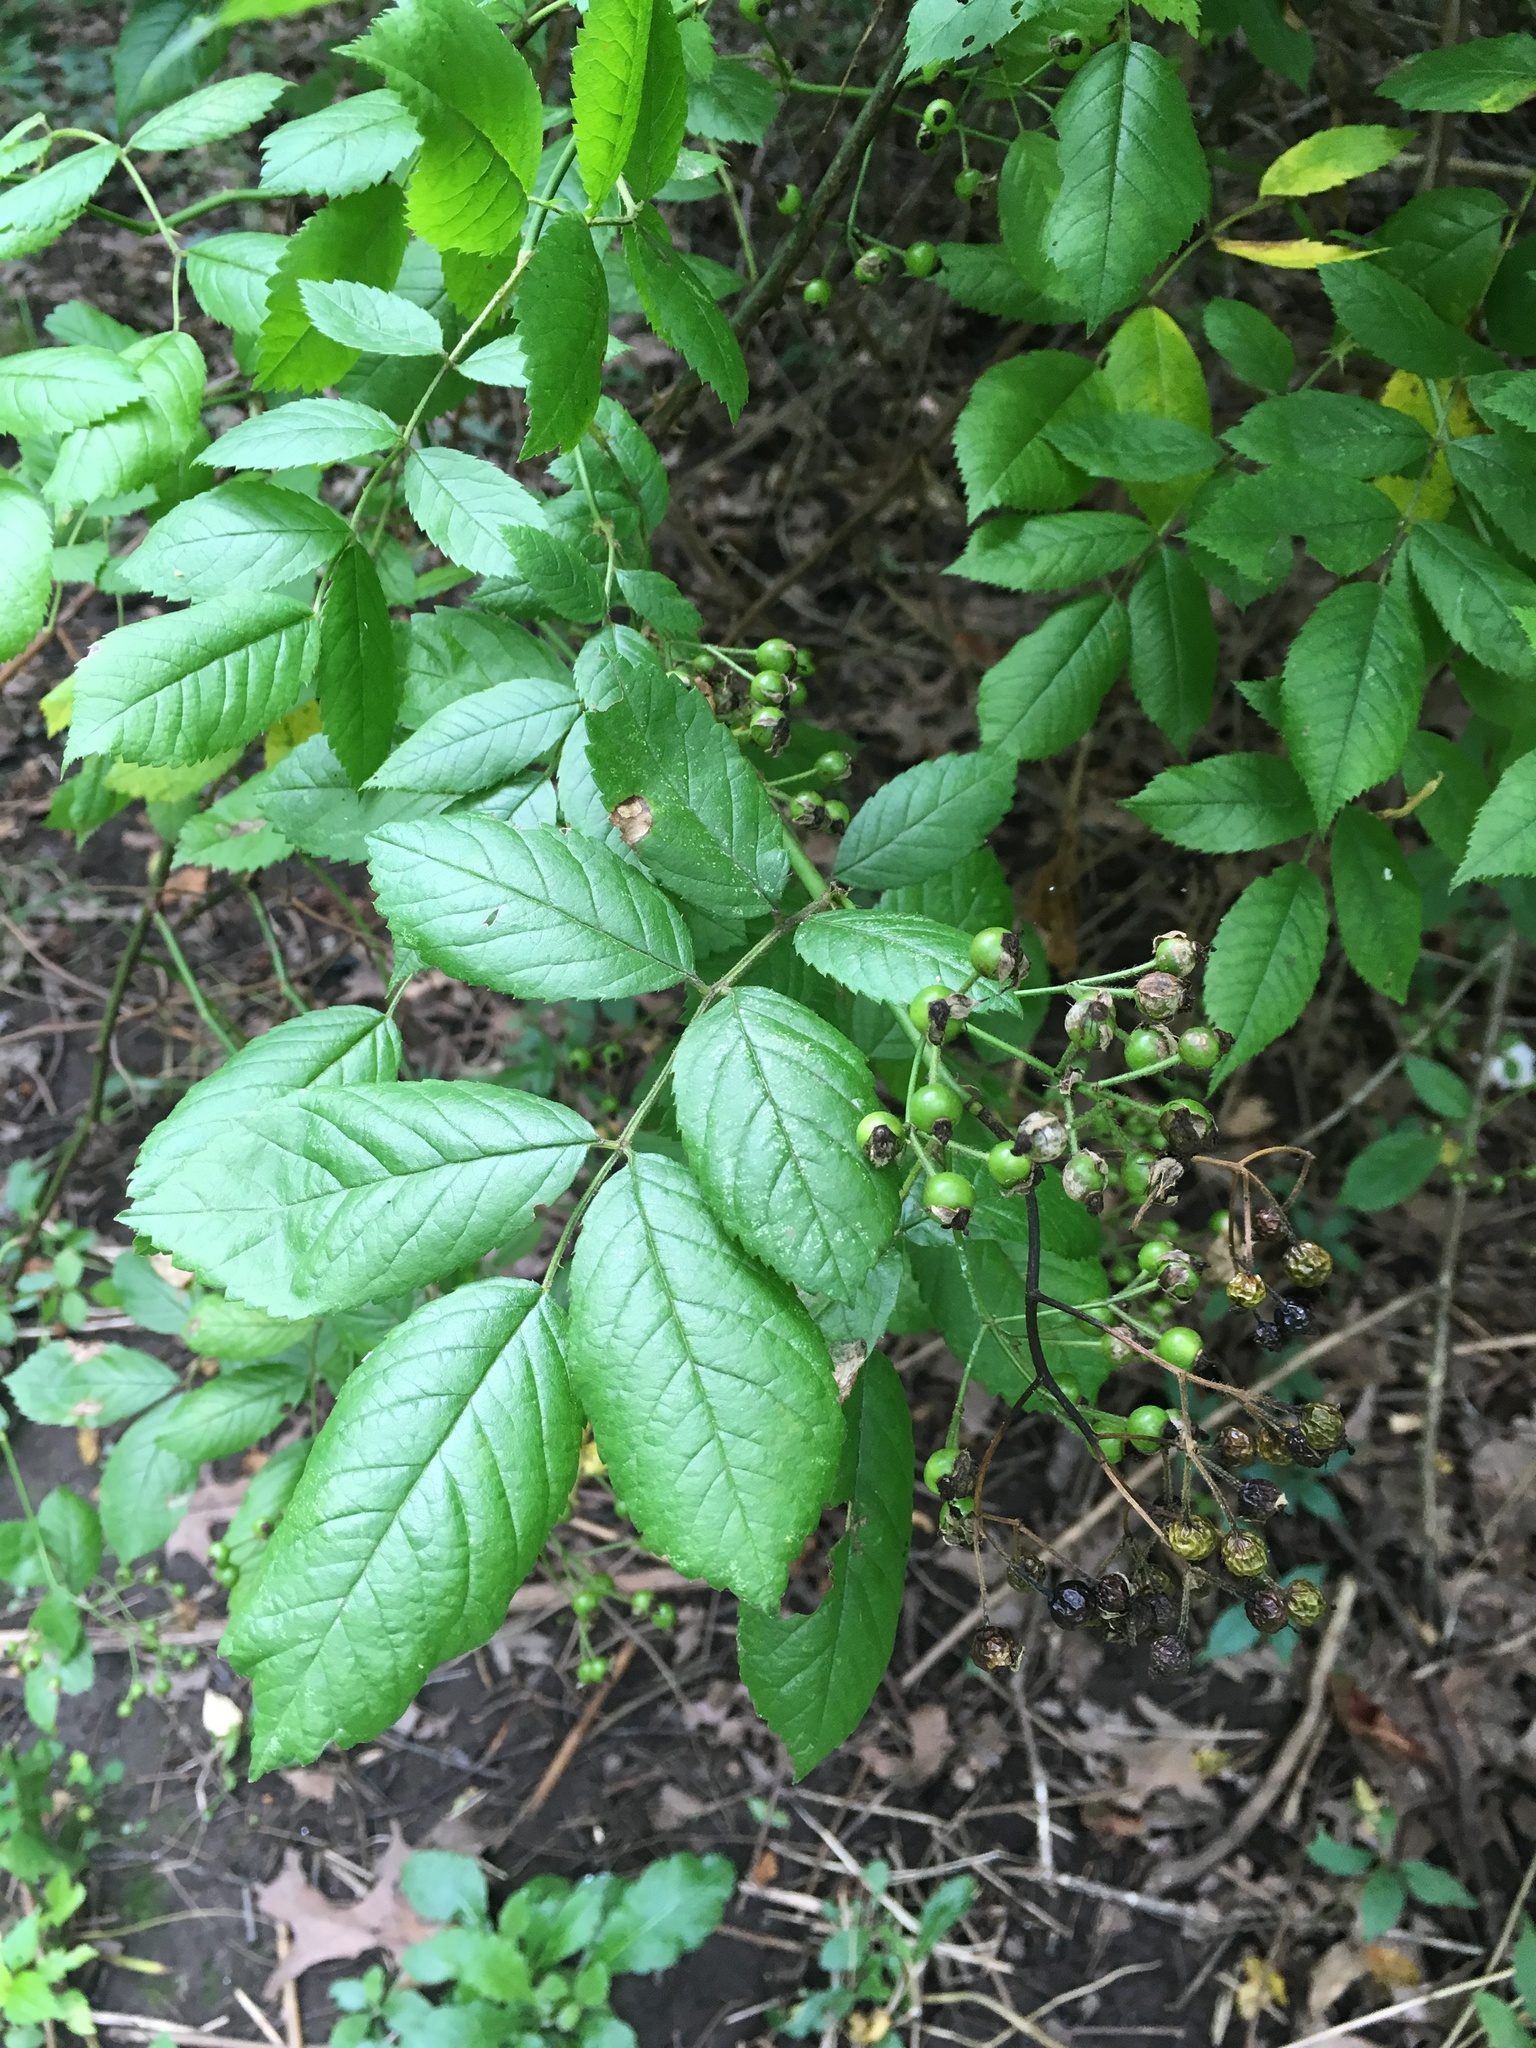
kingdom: Plantae
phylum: Tracheophyta
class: Magnoliopsida
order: Rosales
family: Rosaceae
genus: Rosa
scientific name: Rosa multiflora
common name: Multiflora rose
